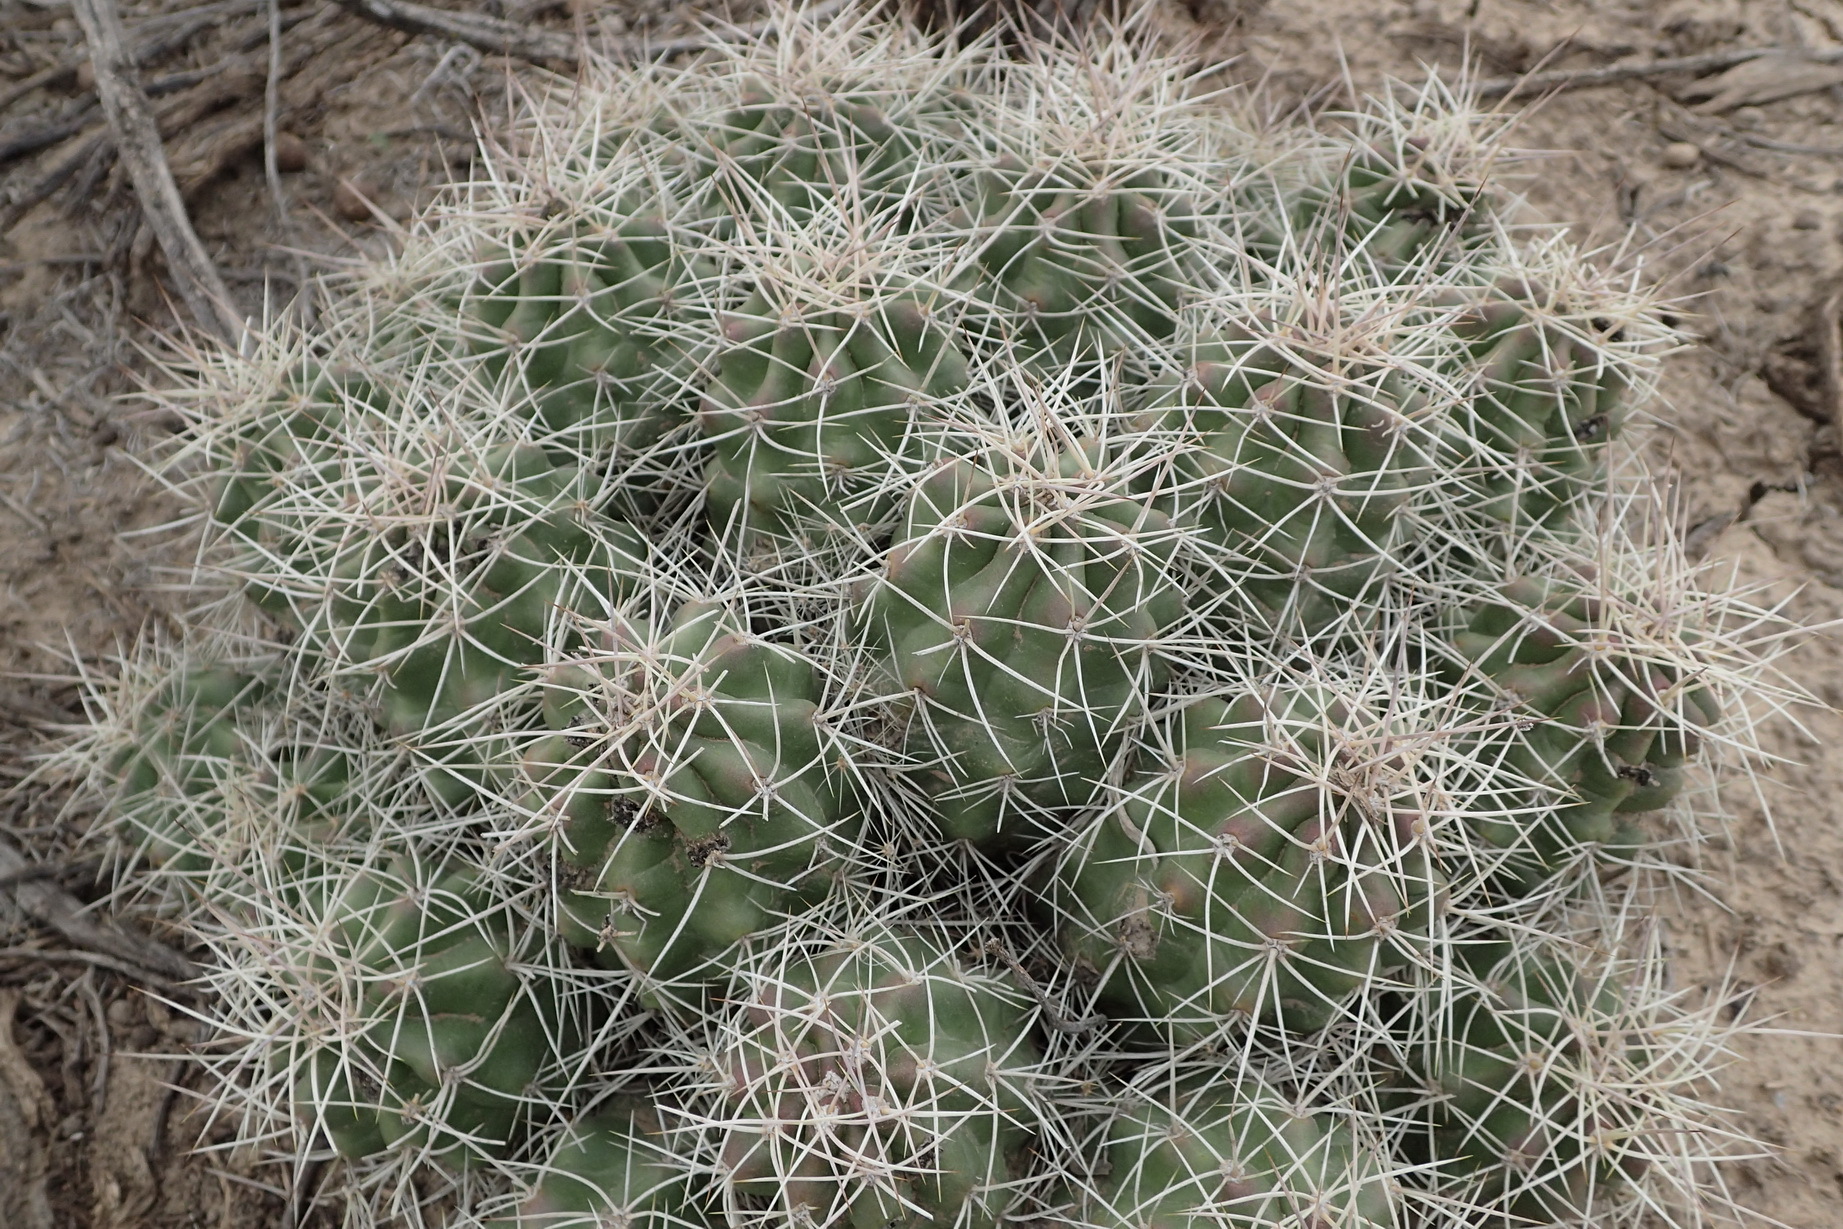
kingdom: Plantae
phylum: Tracheophyta
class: Magnoliopsida
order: Caryophyllales
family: Cactaceae
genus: Echinocereus
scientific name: Echinocereus triglochidiatus
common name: Claretcup hedgehog
